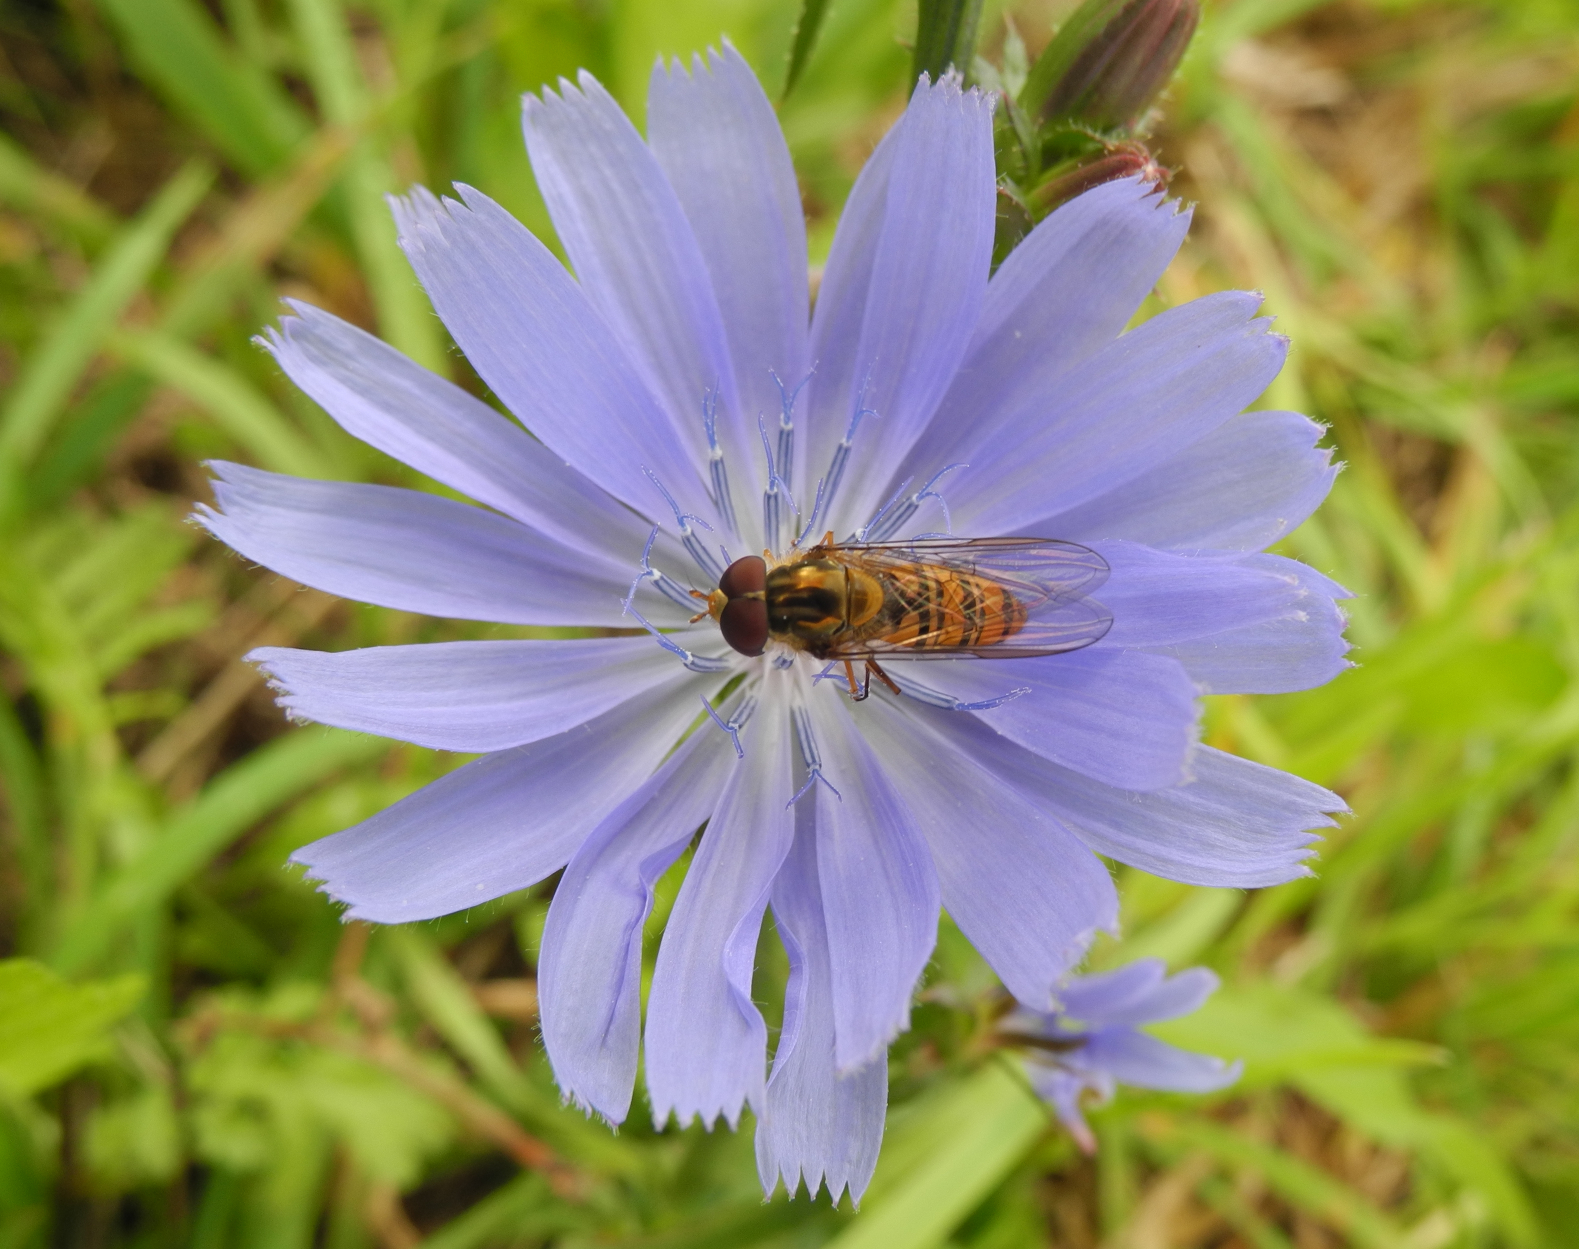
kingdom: Animalia
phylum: Arthropoda
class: Insecta
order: Diptera
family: Syrphidae
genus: Episyrphus
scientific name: Episyrphus balteatus
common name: Marmalade hoverfly
